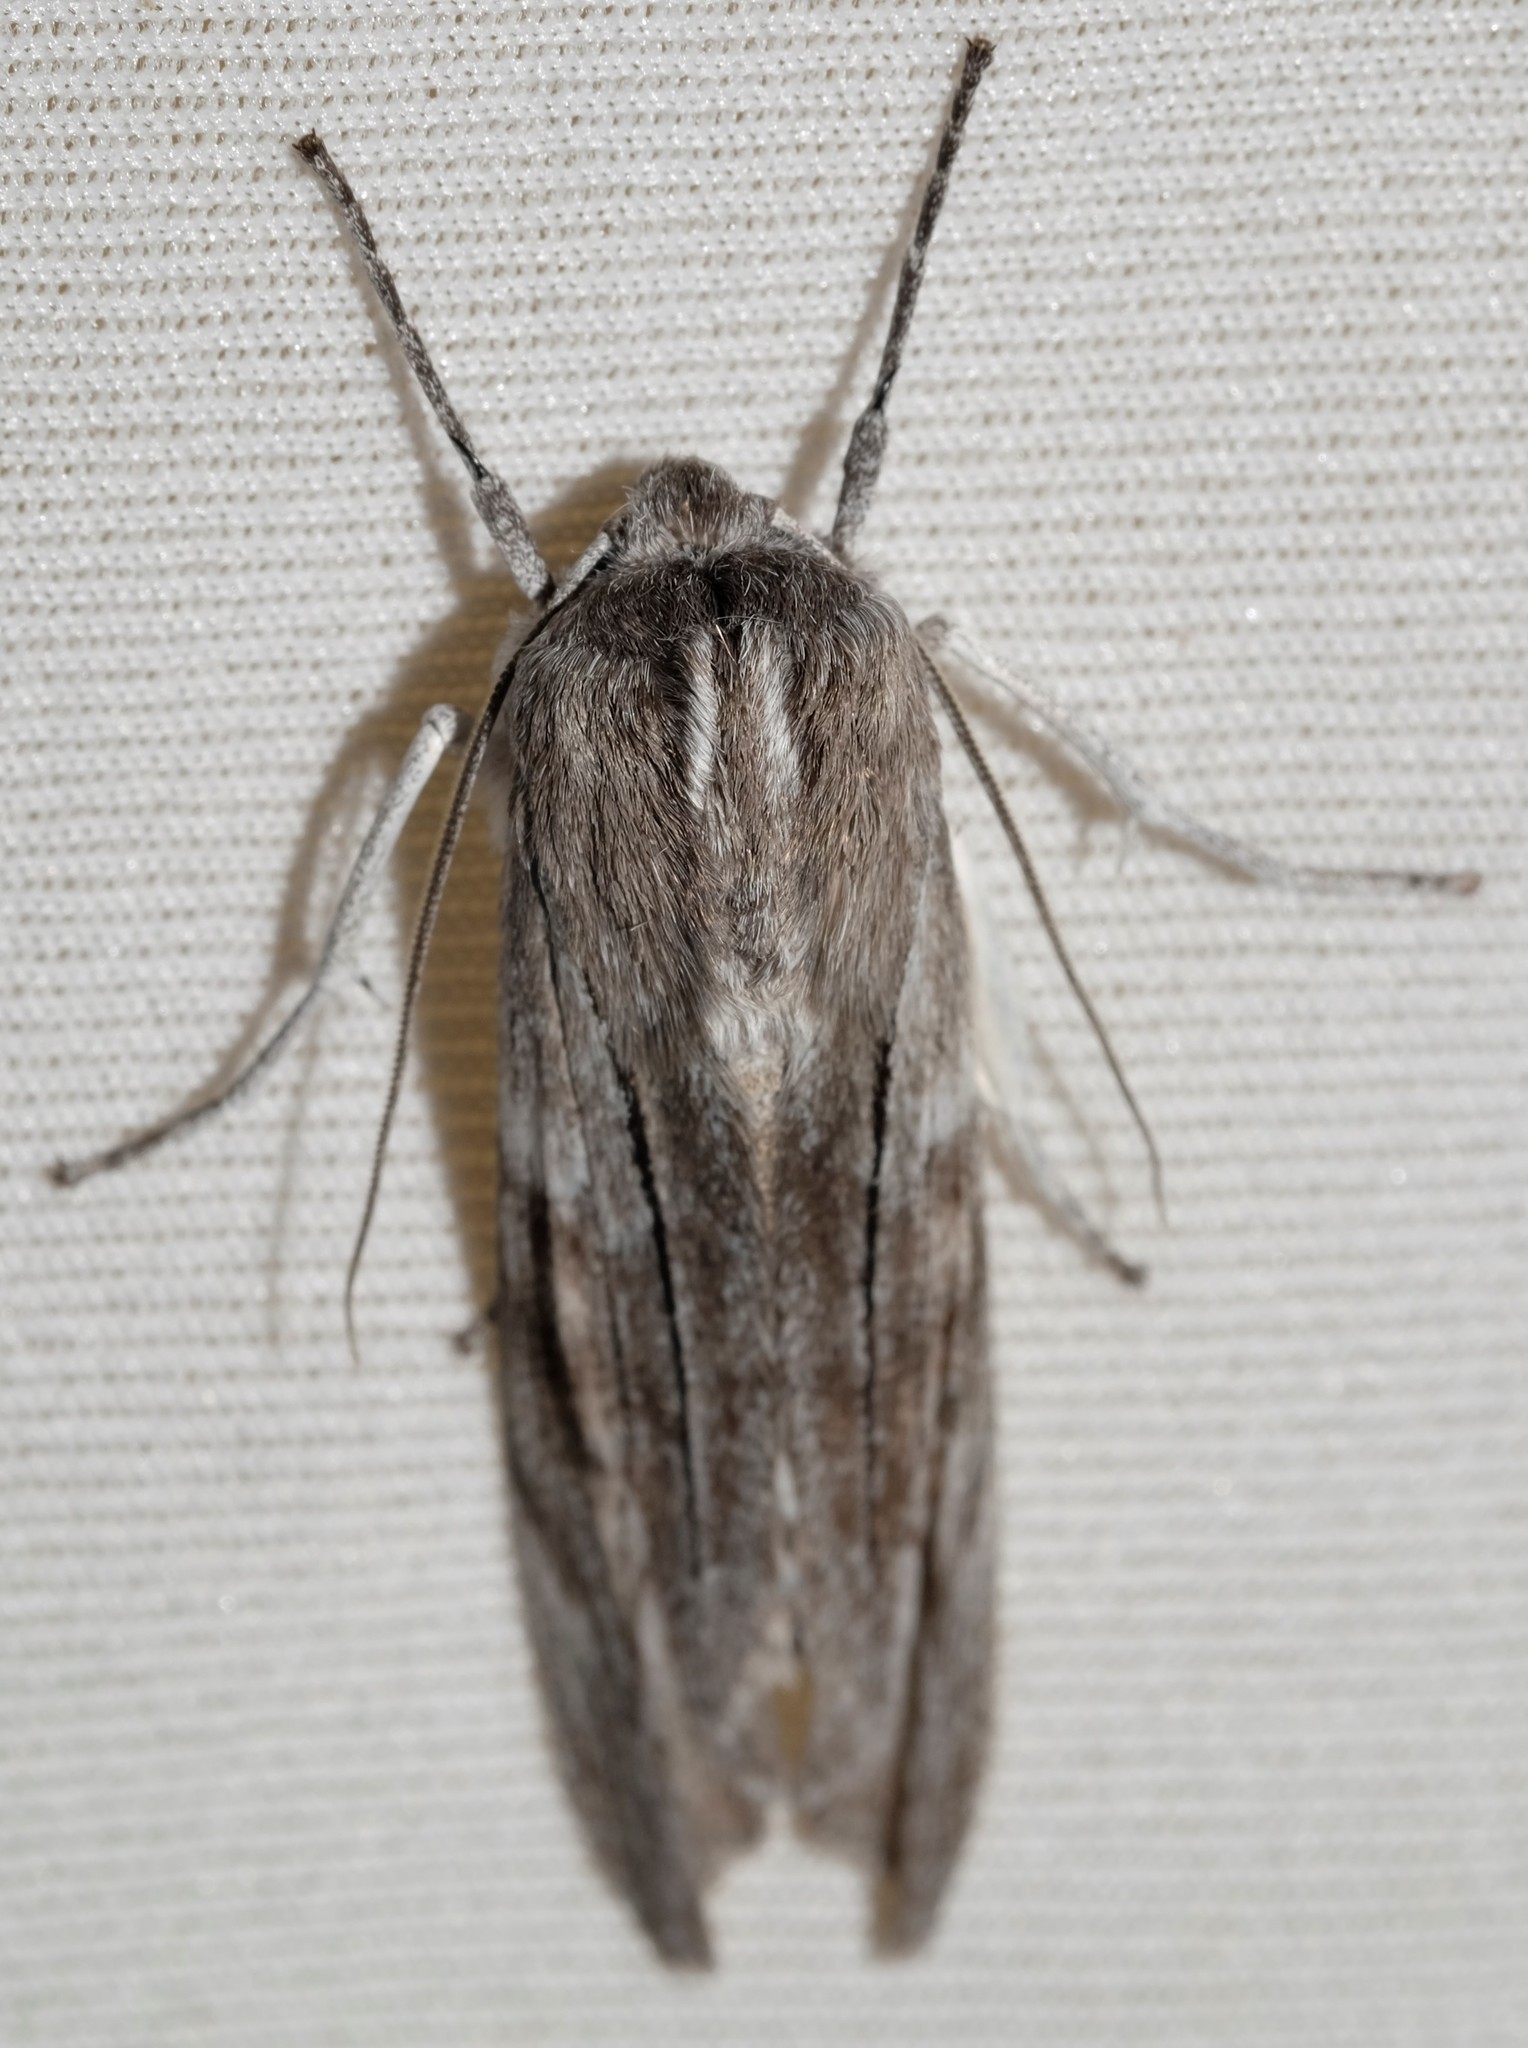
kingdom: Animalia
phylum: Arthropoda
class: Insecta
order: Lepidoptera
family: Geometridae
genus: Capusa
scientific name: Capusa cuculloides
